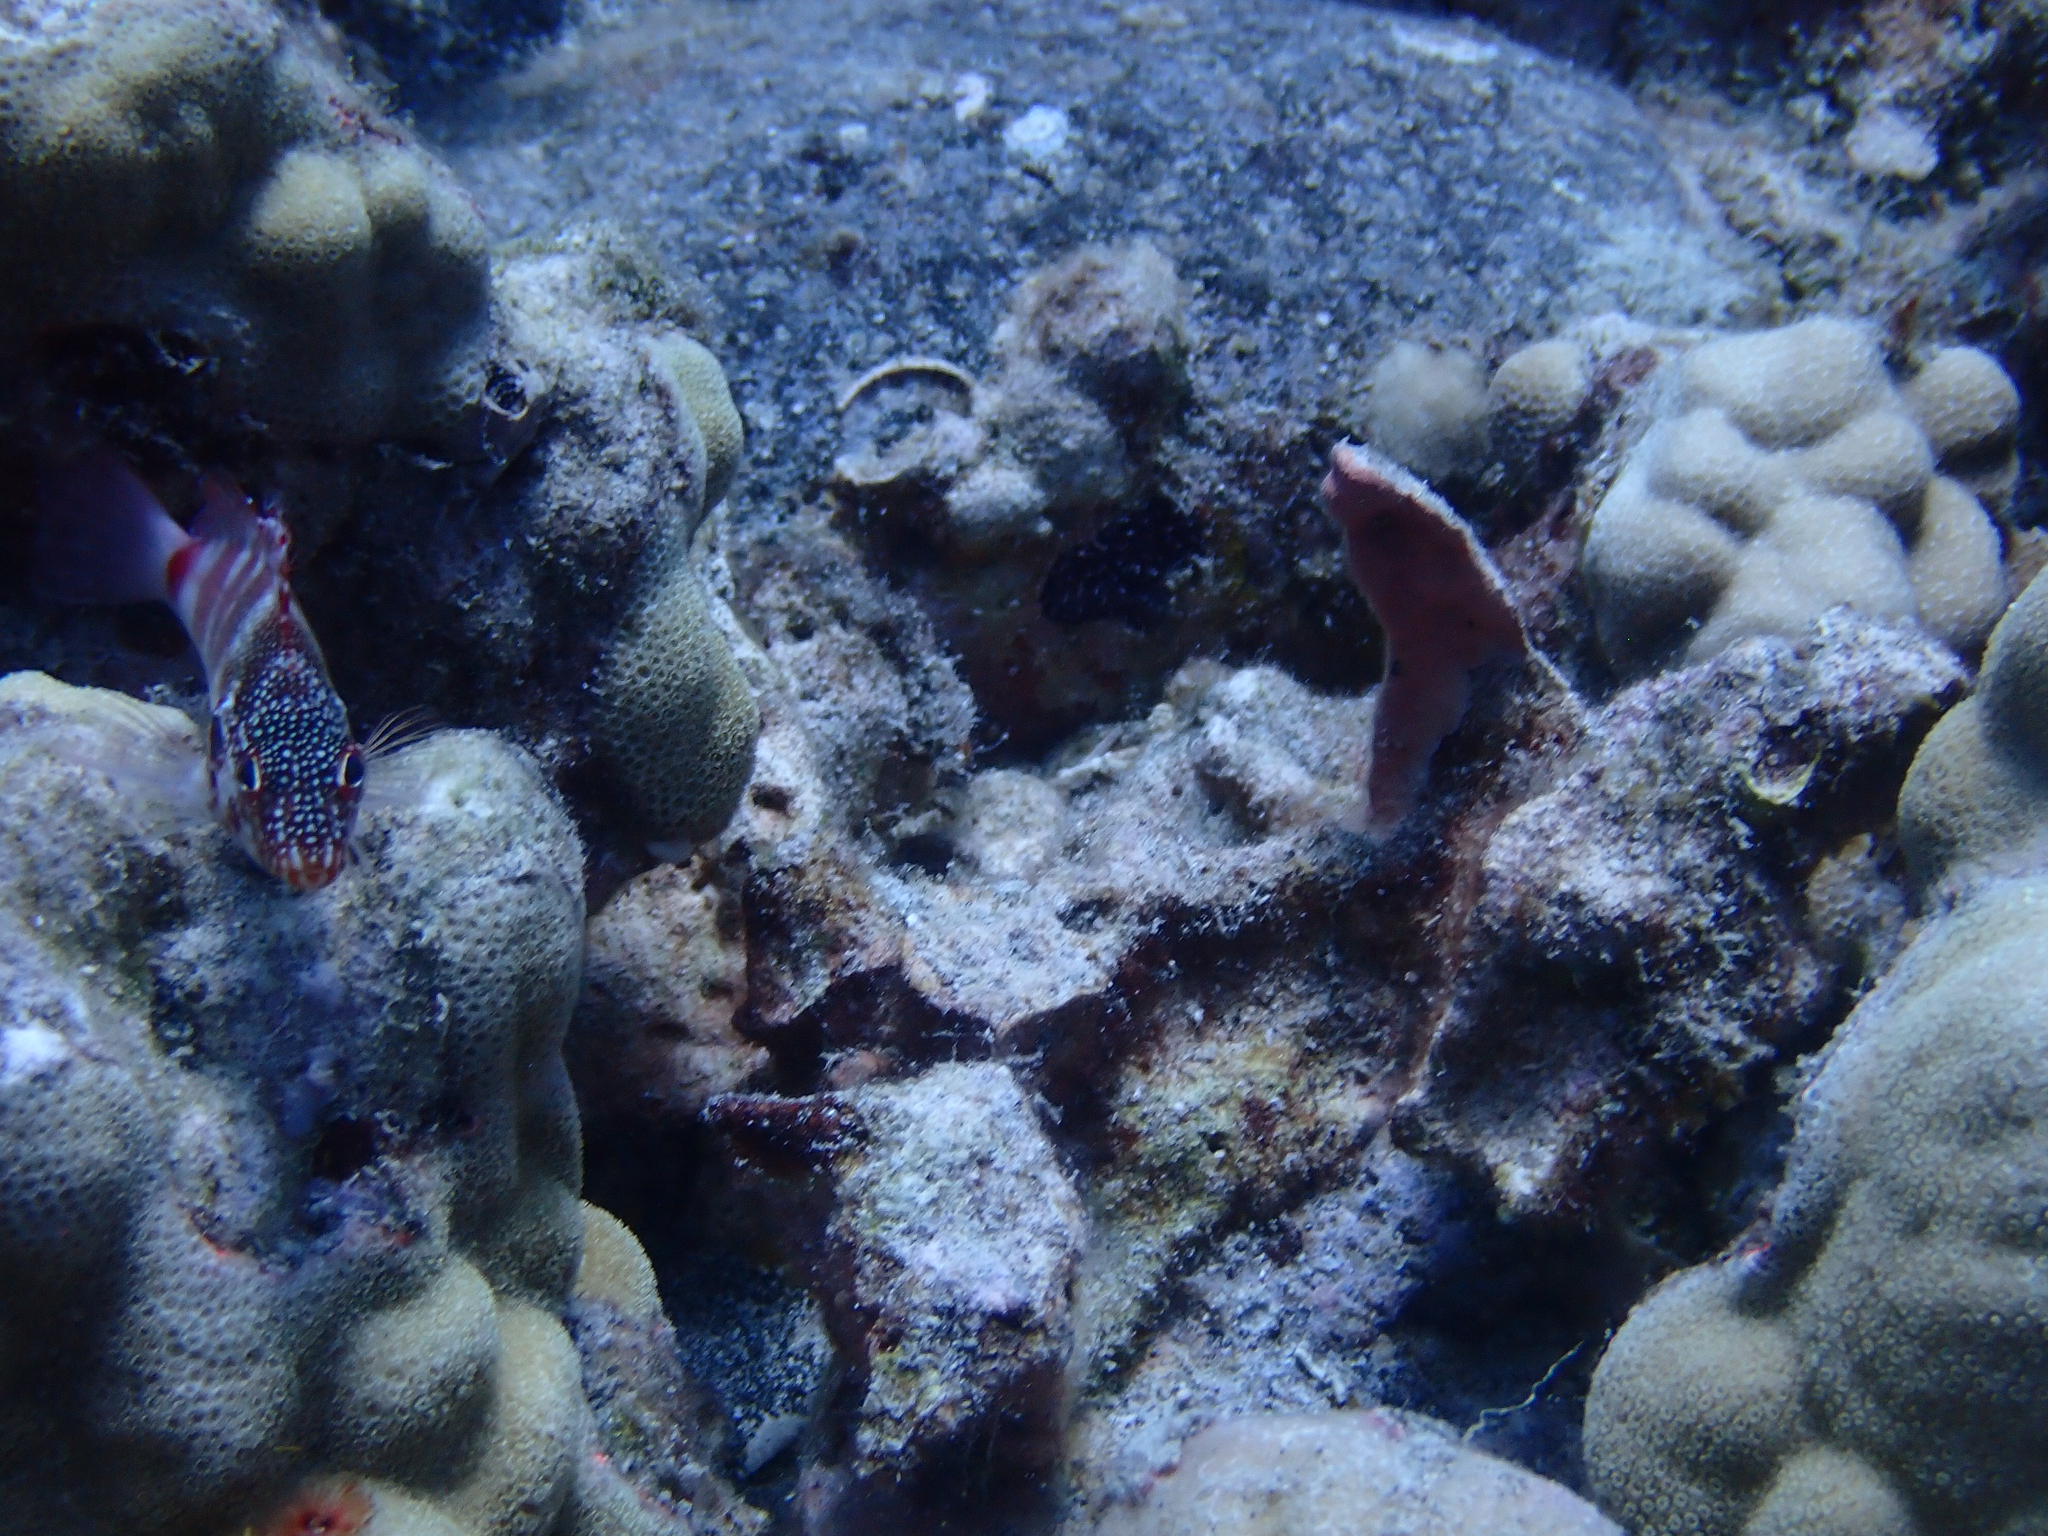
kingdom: Animalia
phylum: Chordata
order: Perciformes
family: Cirrhitidae
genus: Cirrhitops
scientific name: Cirrhitops fasciatus
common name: Redbarred hawkfish
